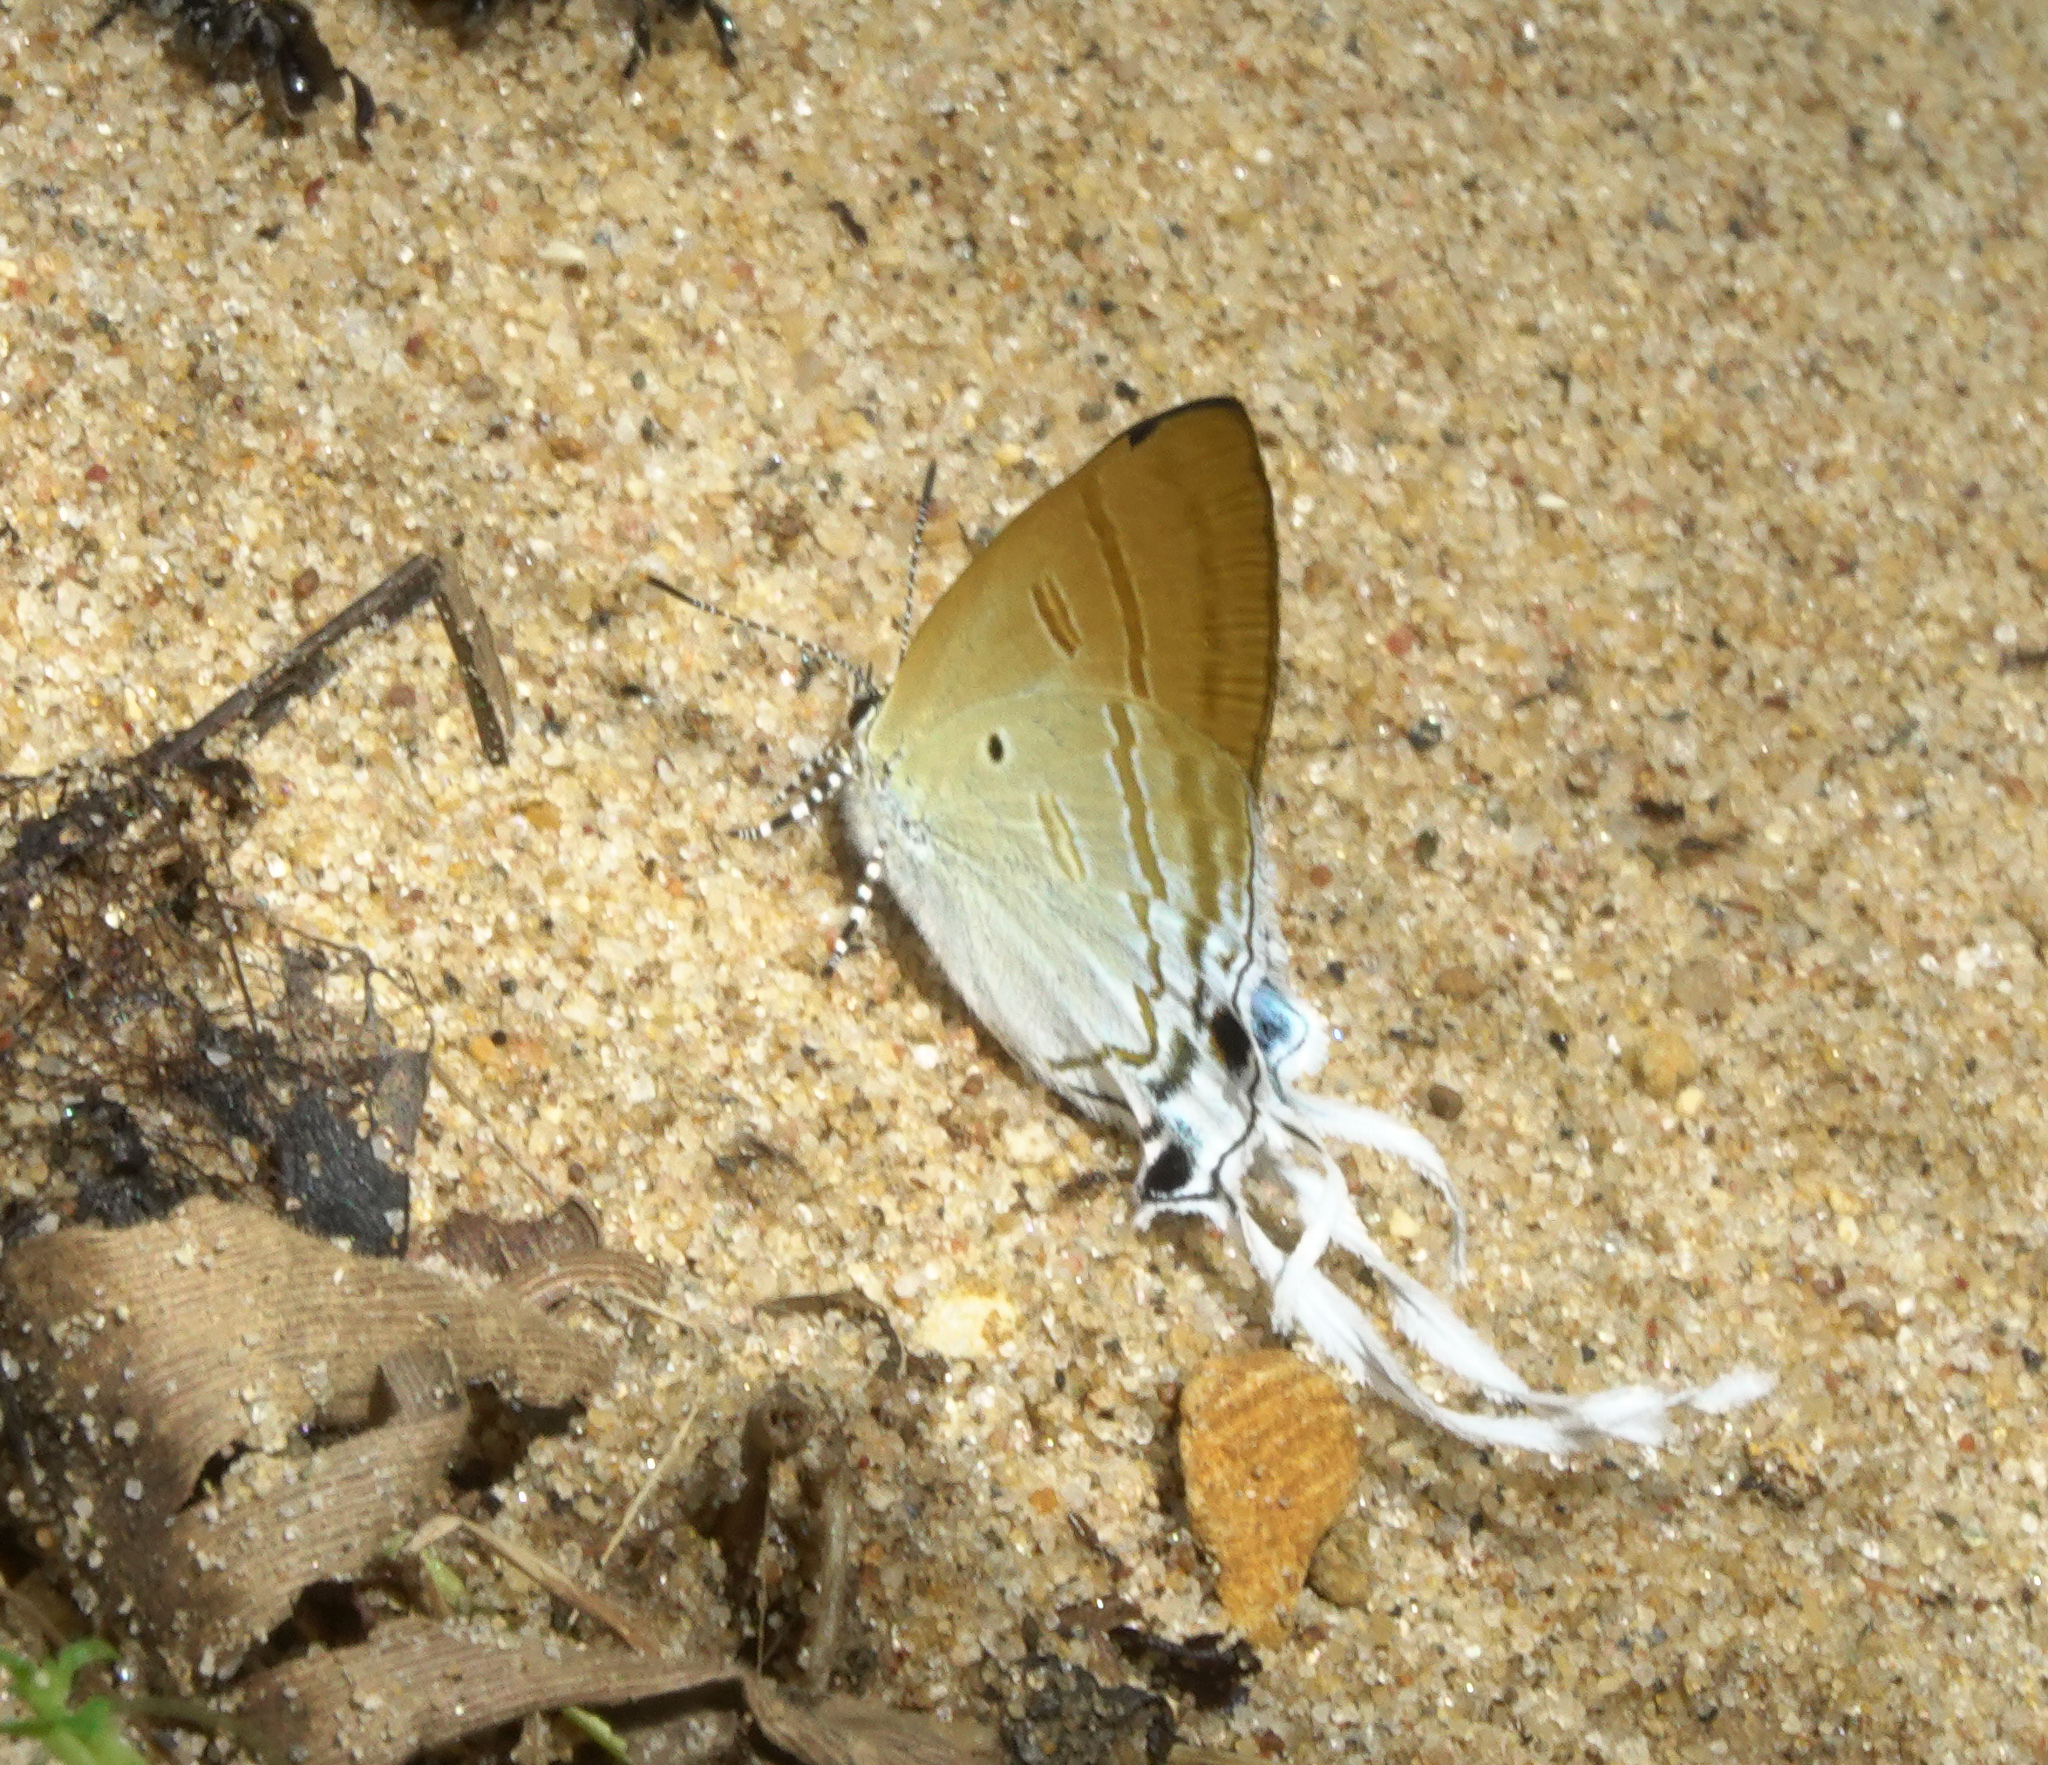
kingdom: Animalia
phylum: Arthropoda
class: Insecta
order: Lepidoptera
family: Lycaenidae
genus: Zeltus
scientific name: Zeltus amasa
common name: Fluffy tit
